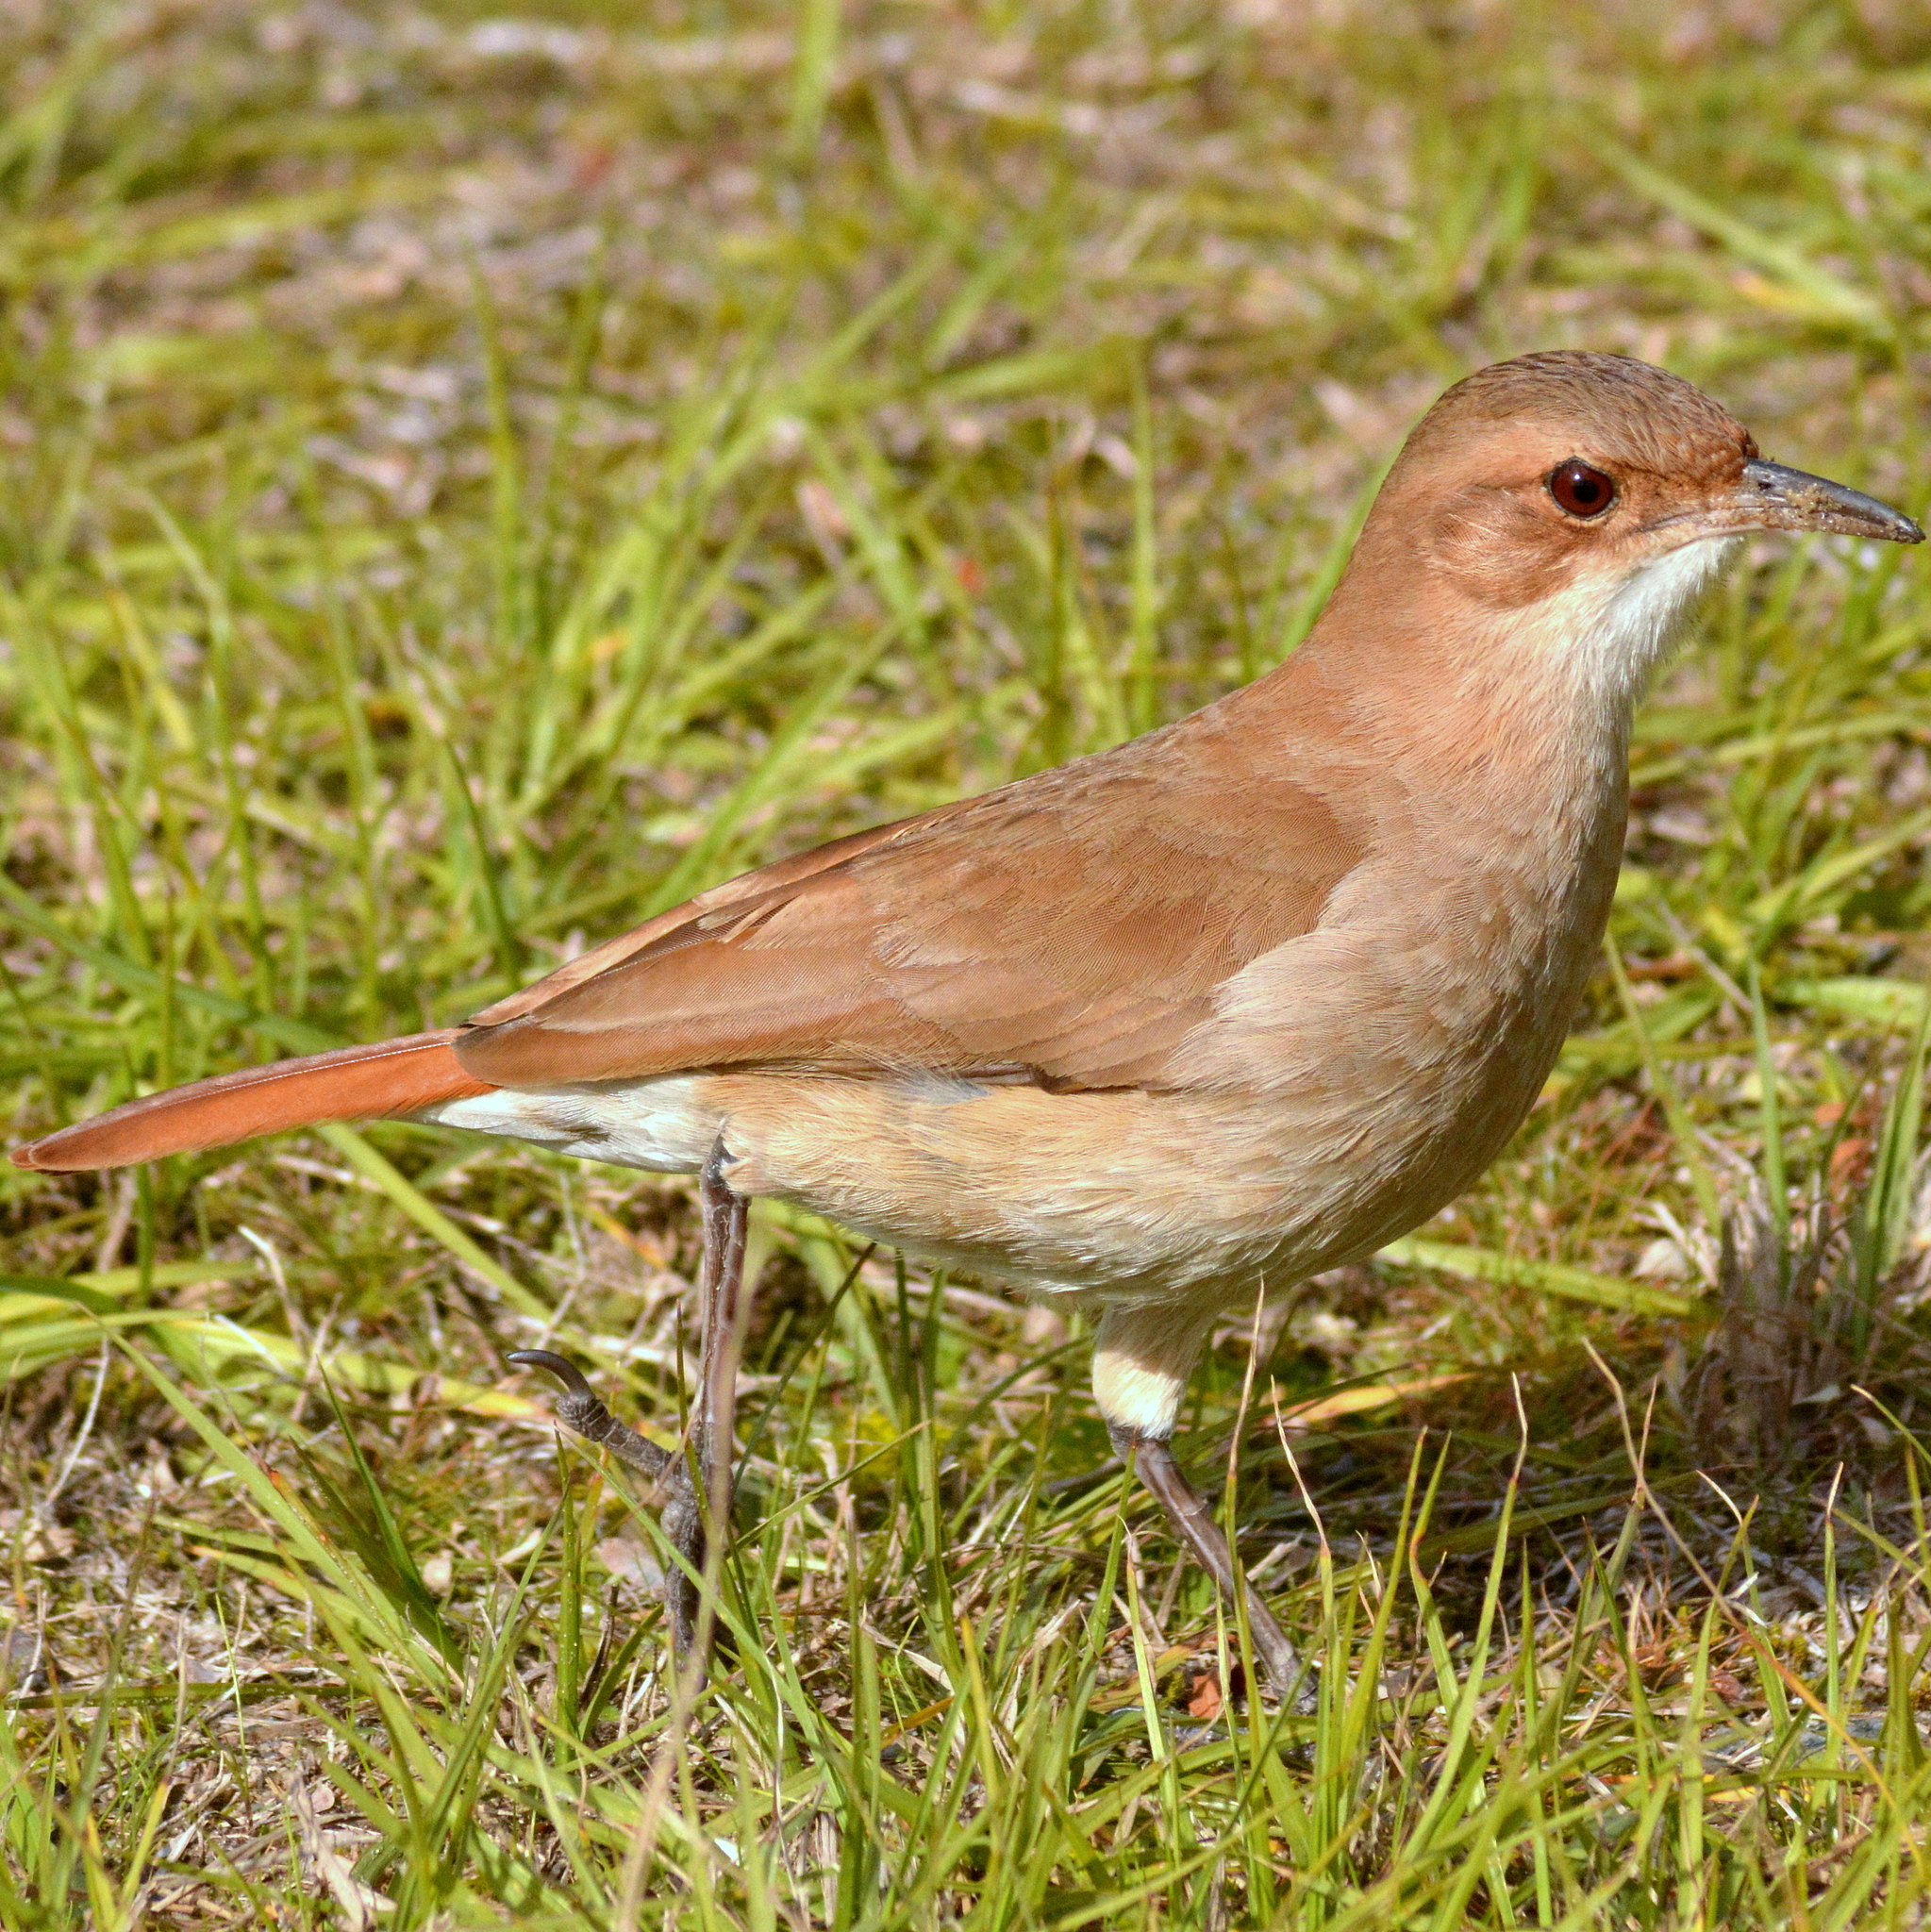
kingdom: Animalia
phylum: Chordata
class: Aves
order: Passeriformes
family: Furnariidae
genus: Furnarius
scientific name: Furnarius rufus
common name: Rufous hornero
